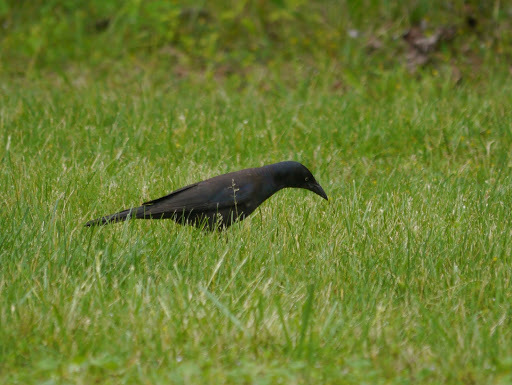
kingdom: Animalia
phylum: Chordata
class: Aves
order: Passeriformes
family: Icteridae
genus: Quiscalus
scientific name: Quiscalus quiscula
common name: Common grackle
